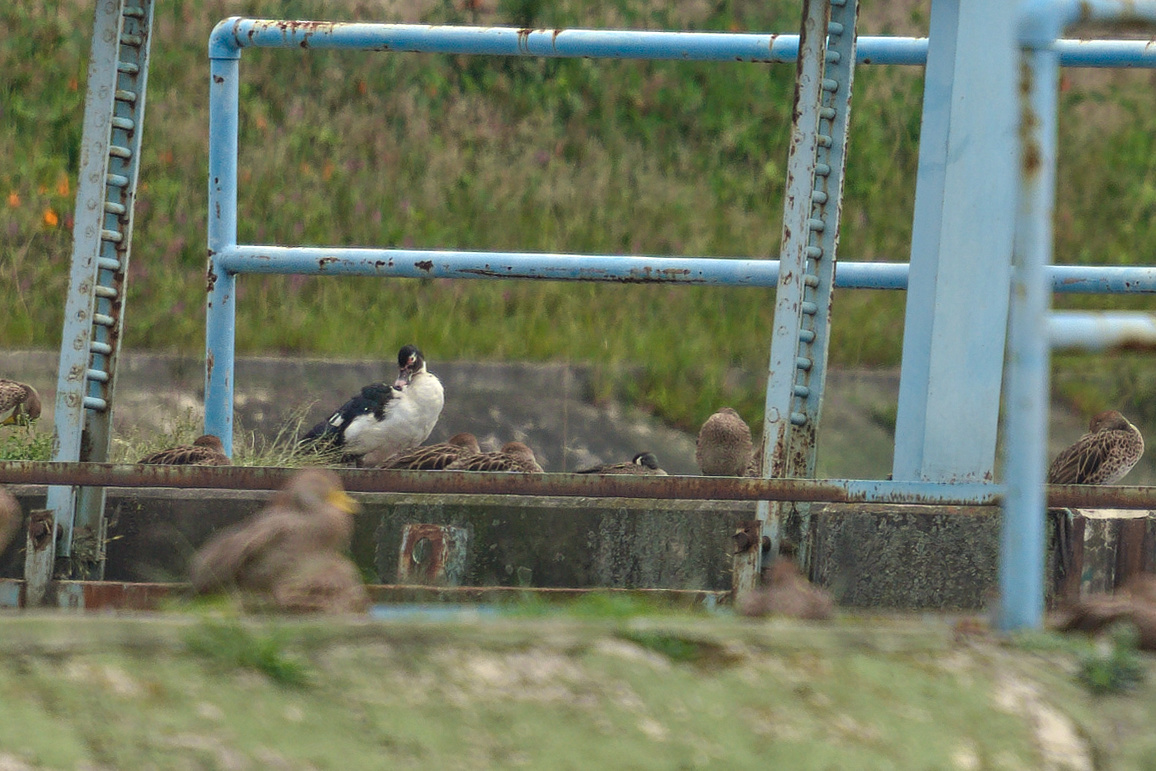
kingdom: Animalia
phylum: Chordata
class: Aves
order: Anseriformes
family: Anatidae
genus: Spatula
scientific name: Spatula discors
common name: Blue-winged teal
